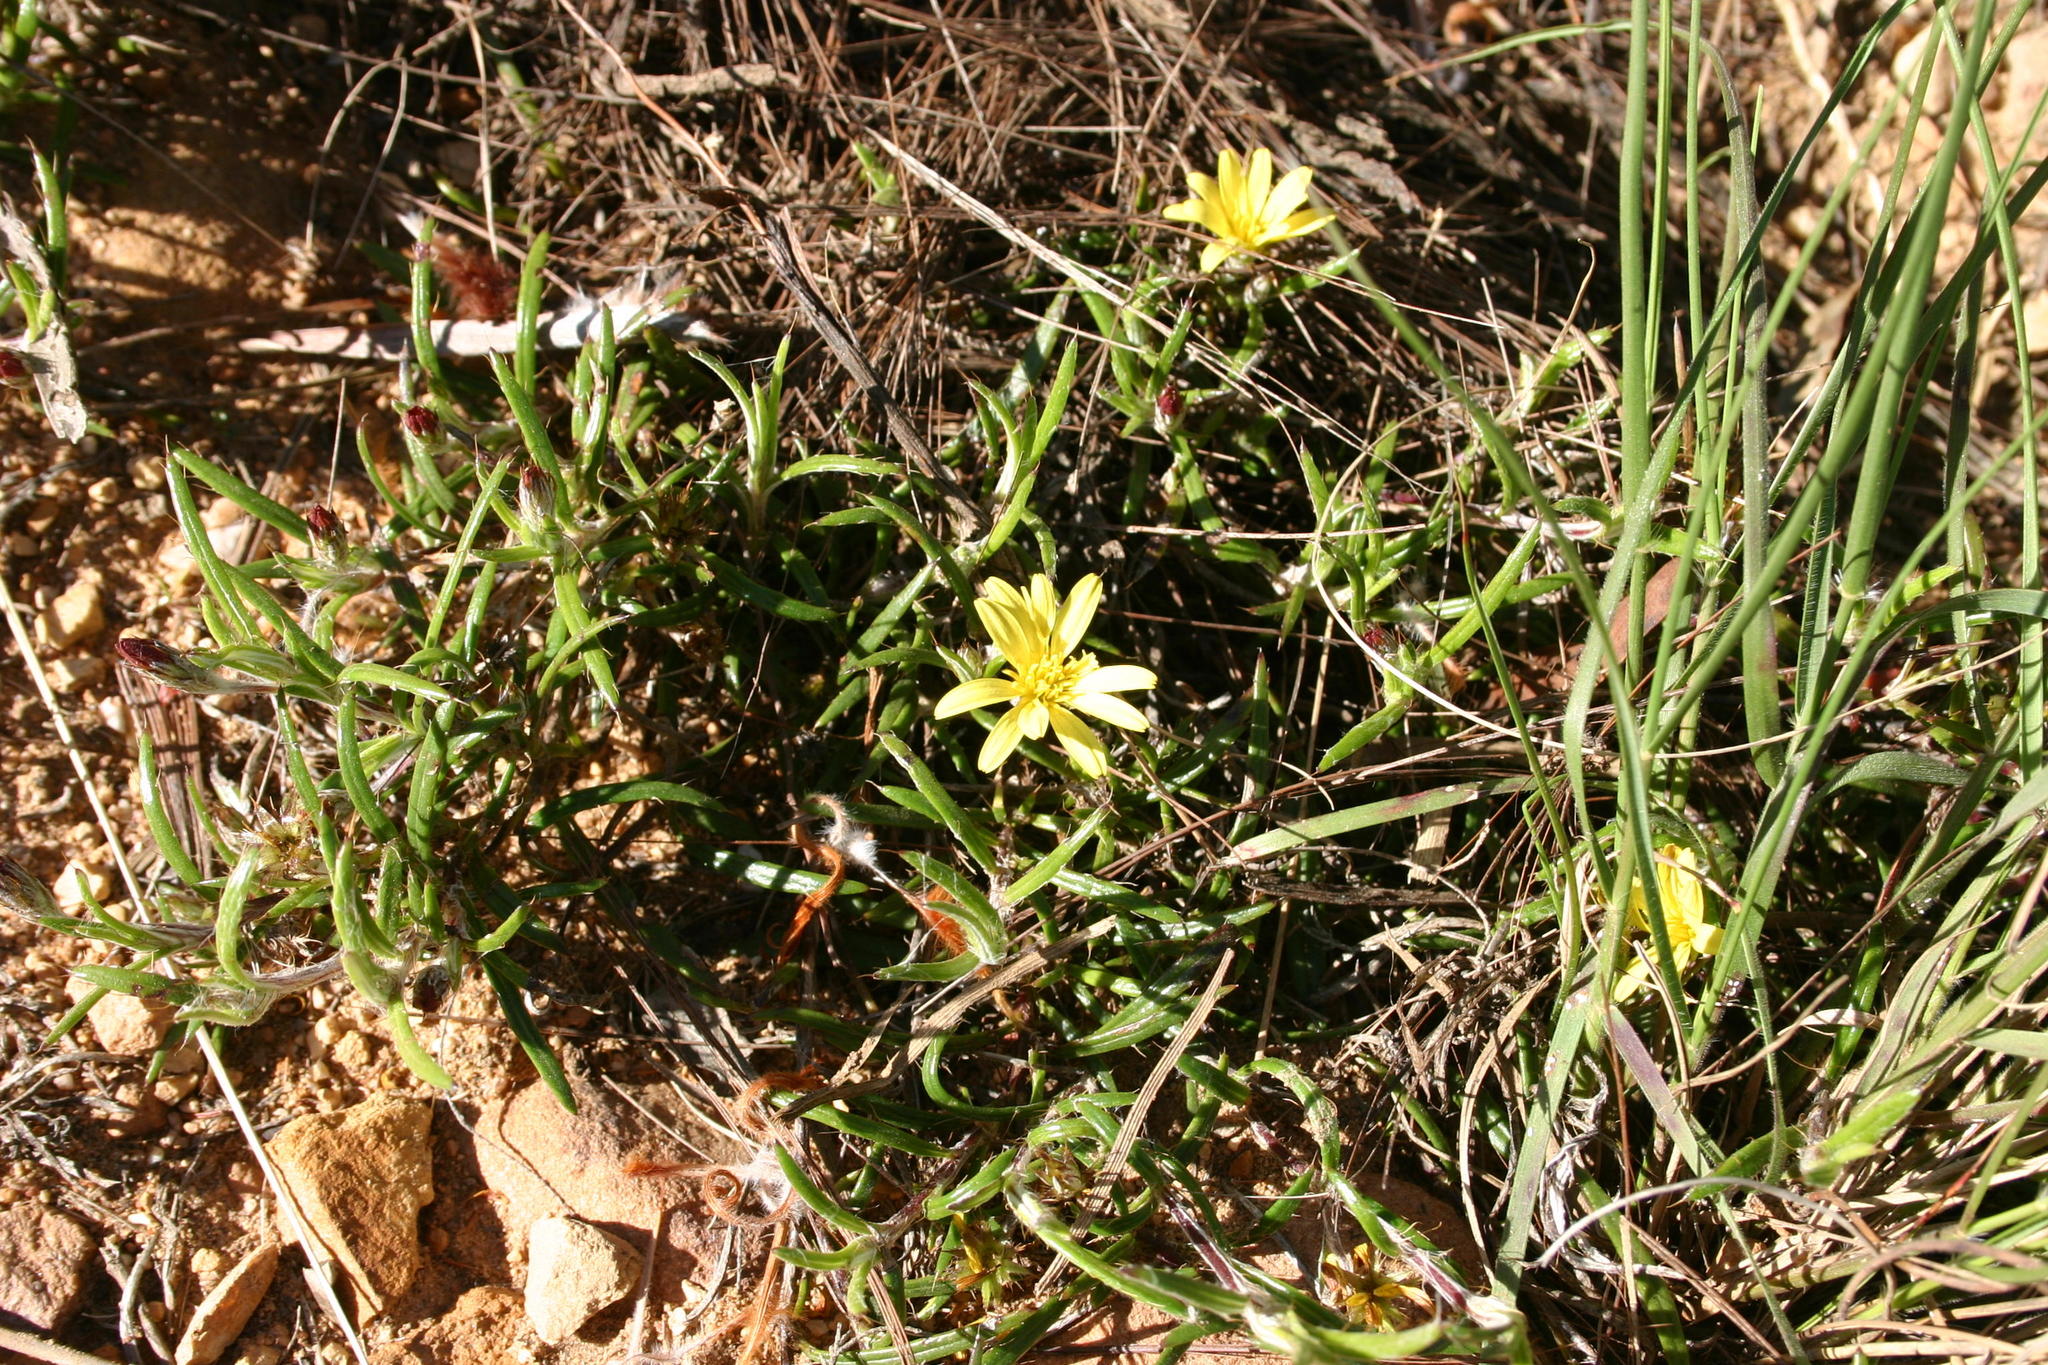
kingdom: Plantae
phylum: Tracheophyta
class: Magnoliopsida
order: Asterales
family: Asteraceae
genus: Cullumia
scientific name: Cullumia aculeata
